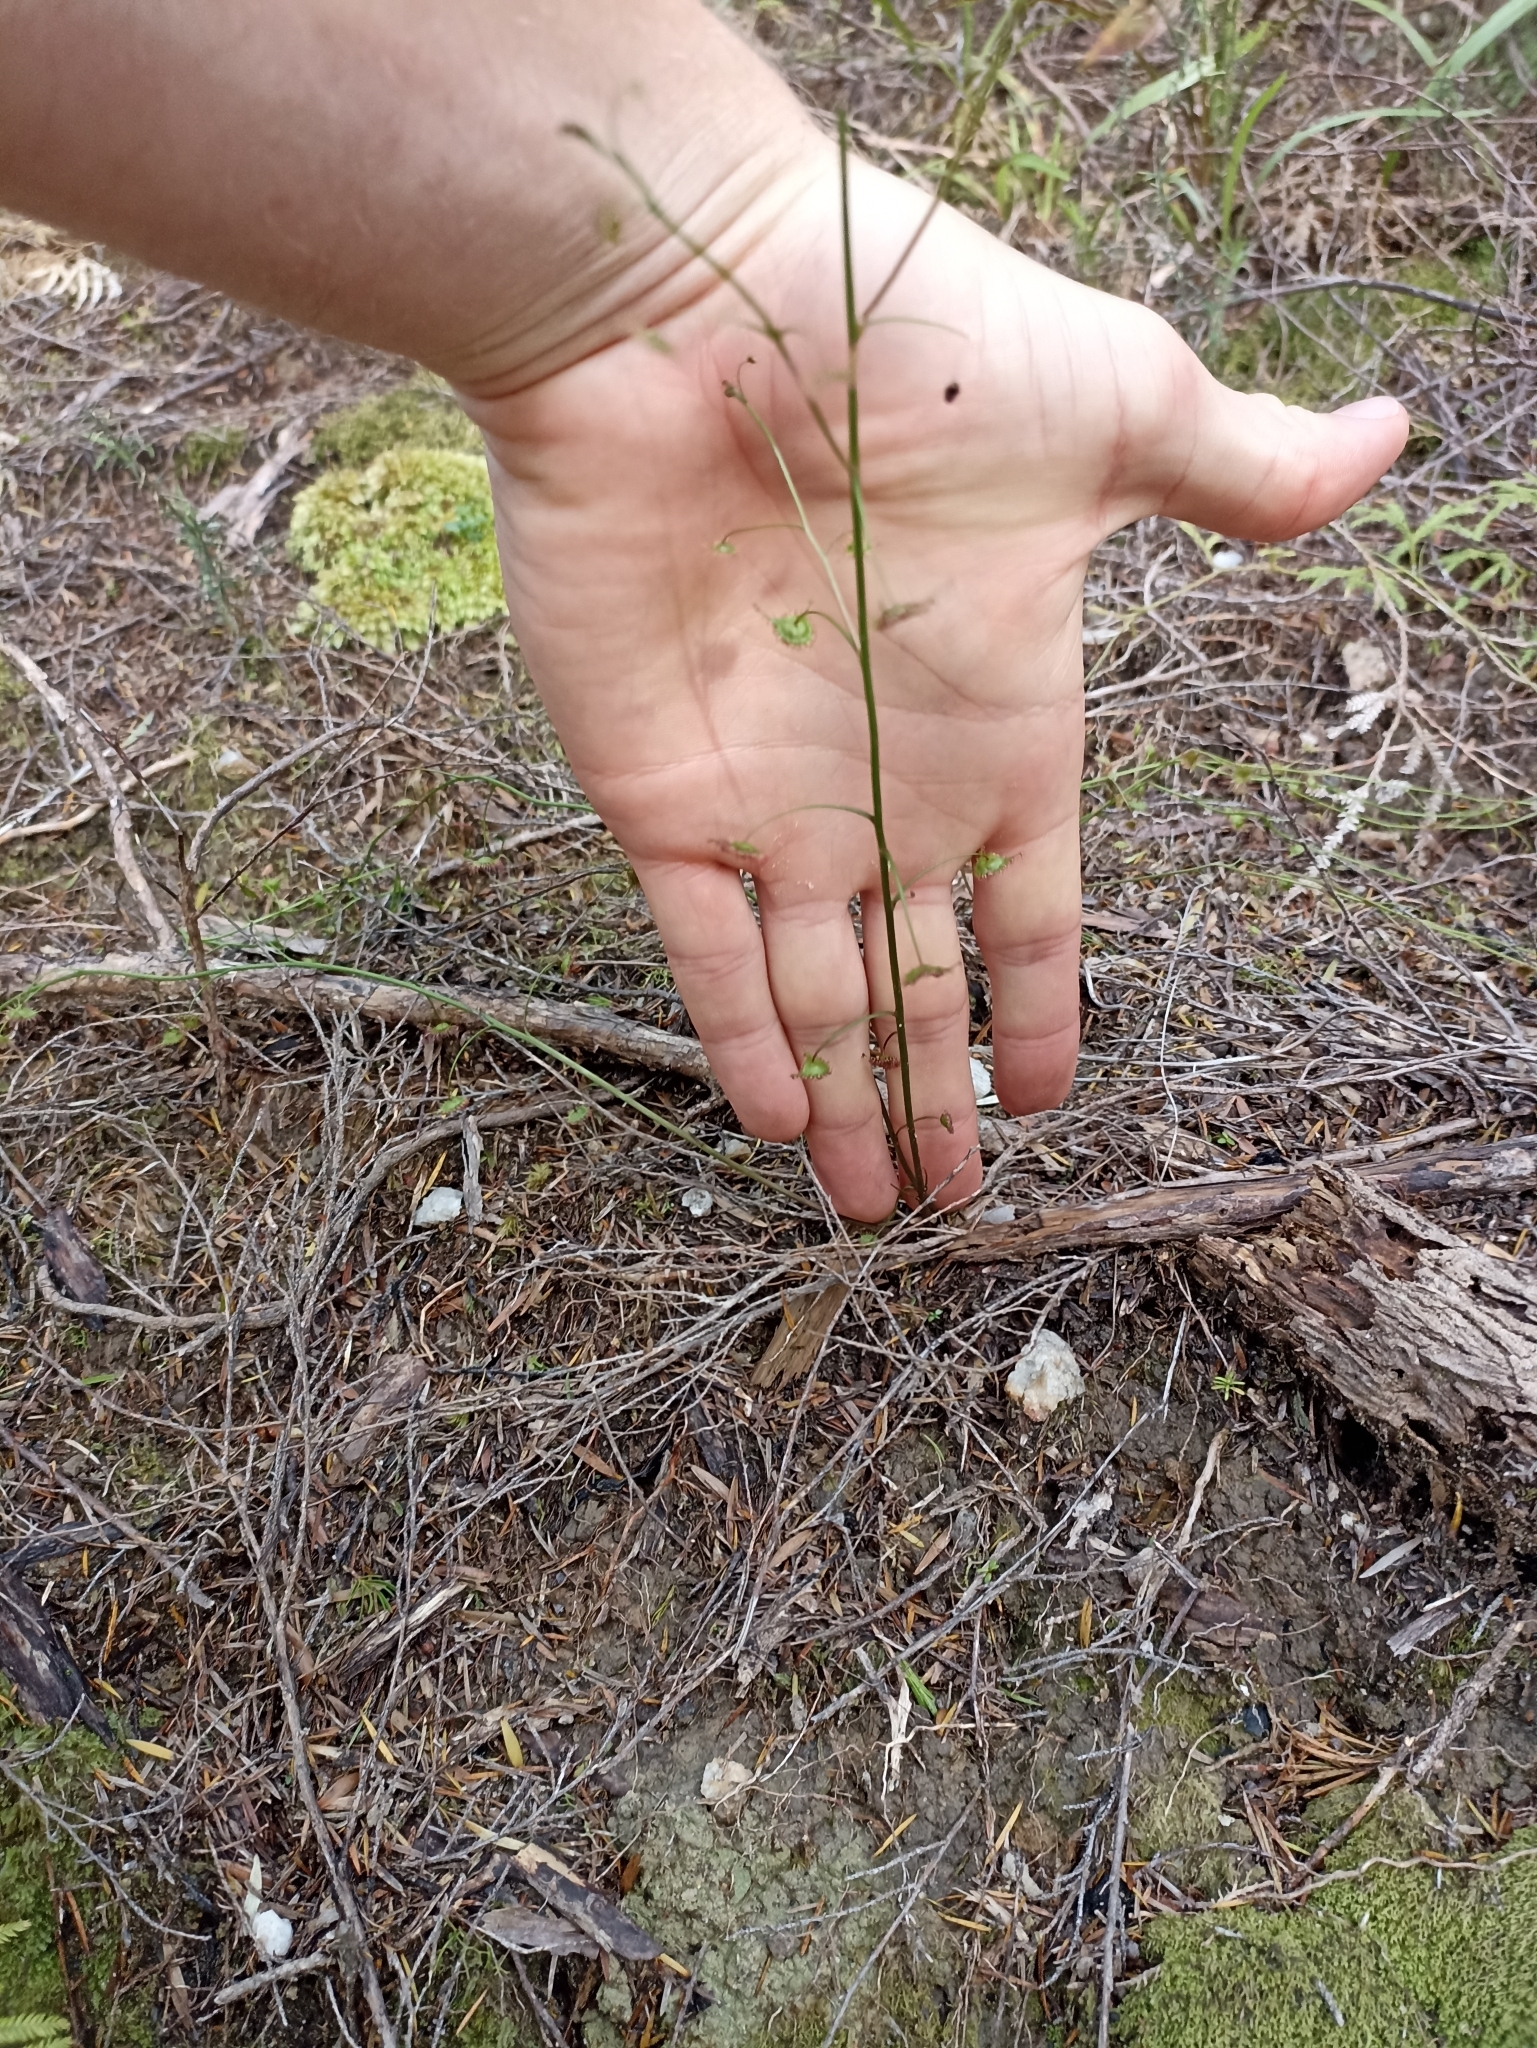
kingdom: Plantae
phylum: Tracheophyta
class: Magnoliopsida
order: Caryophyllales
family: Droseraceae
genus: Drosera
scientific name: Drosera peltata
